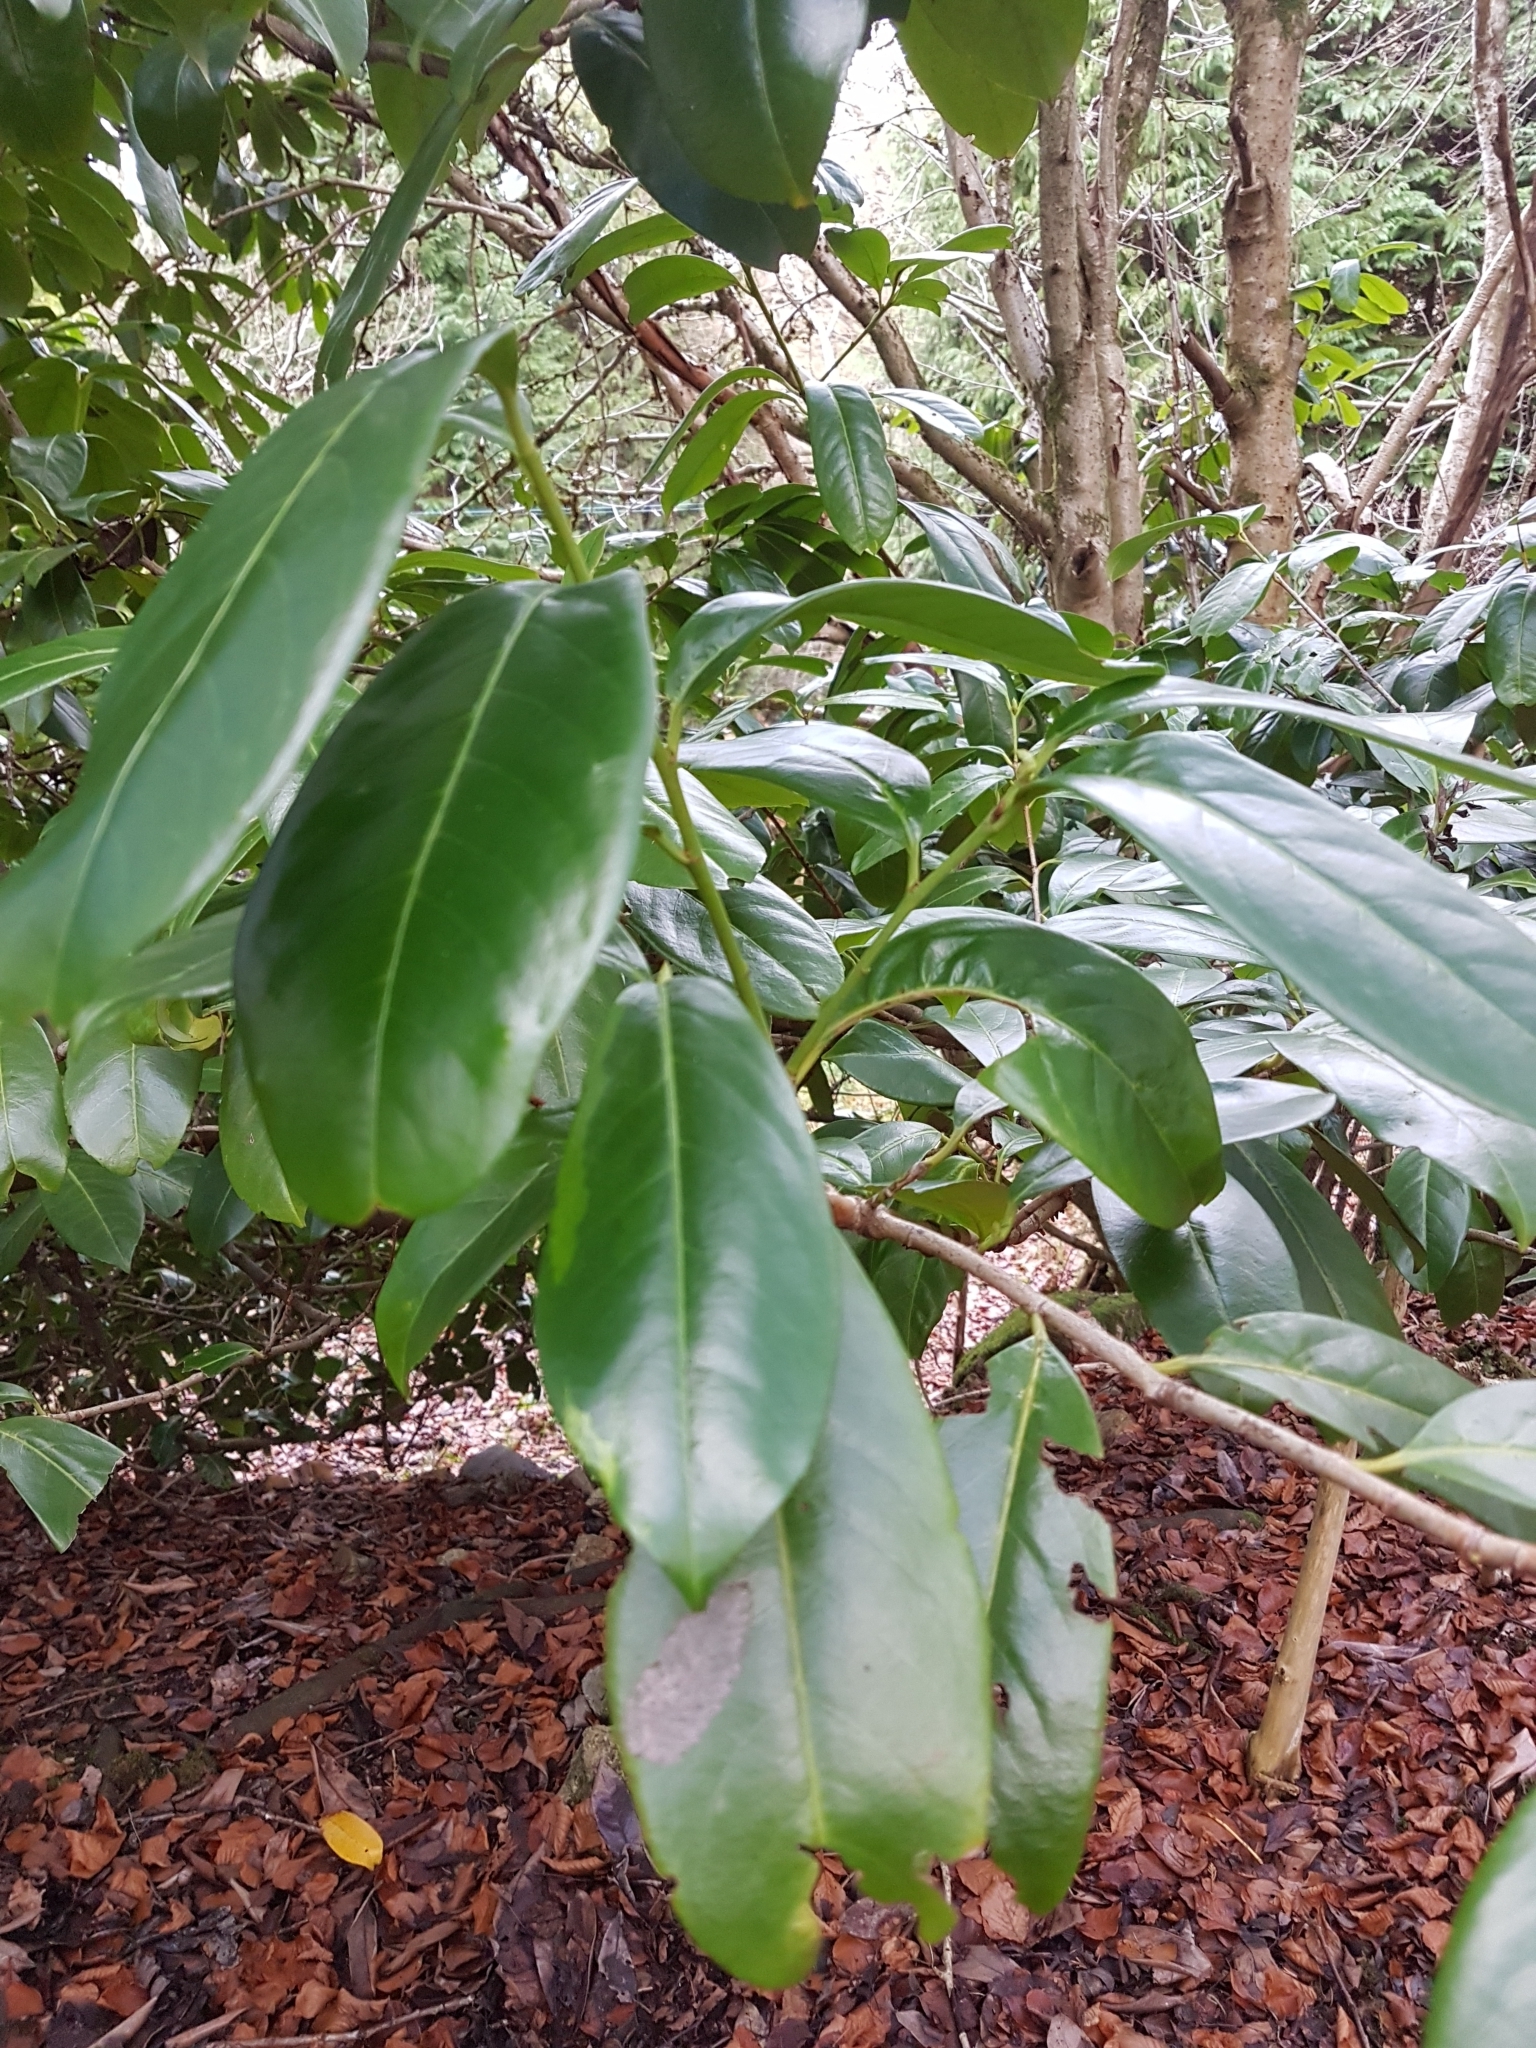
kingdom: Plantae
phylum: Tracheophyta
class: Magnoliopsida
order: Rosales
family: Rosaceae
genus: Prunus
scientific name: Prunus laurocerasus
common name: Cherry laurel
